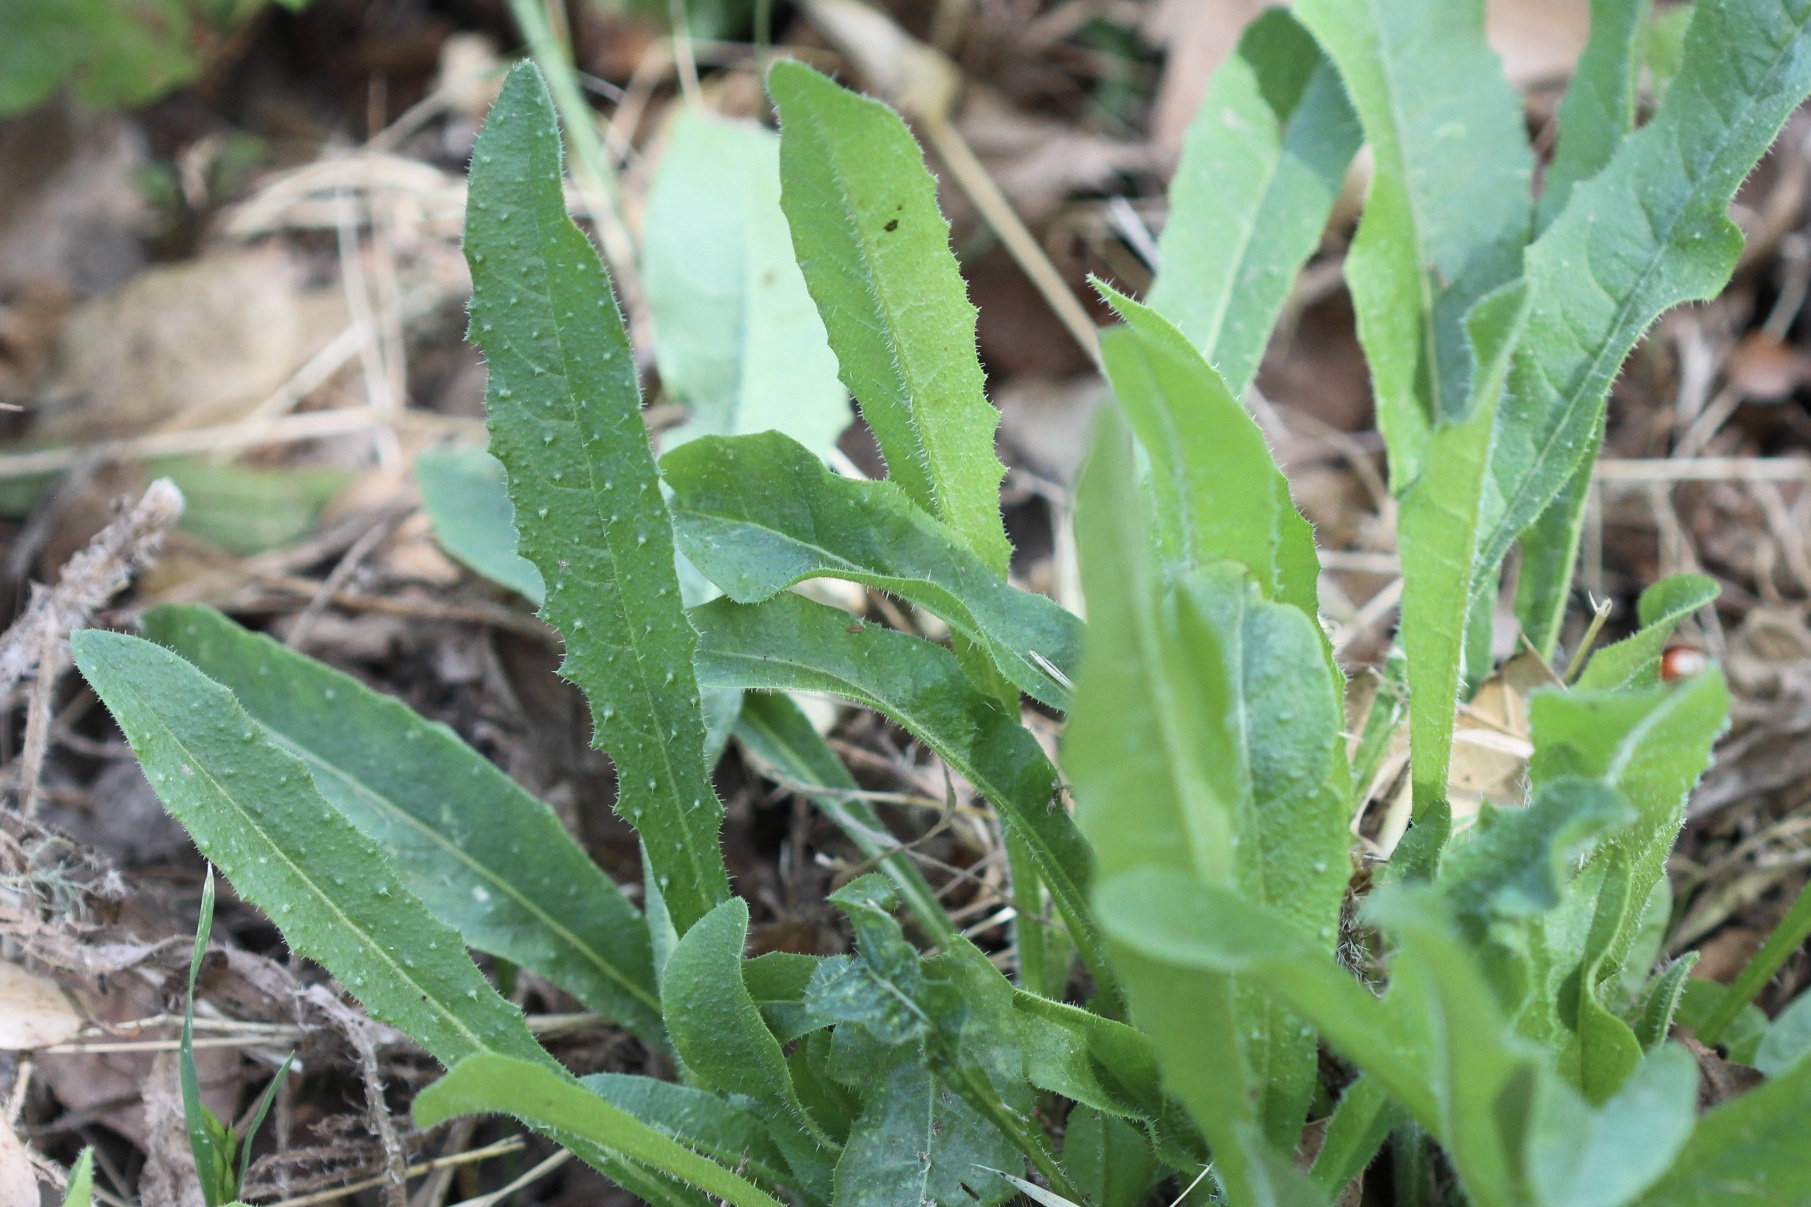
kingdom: Plantae
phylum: Tracheophyta
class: Magnoliopsida
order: Asterales
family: Asteraceae
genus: Helminthotheca
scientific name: Helminthotheca echioides
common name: Ox-tongue
